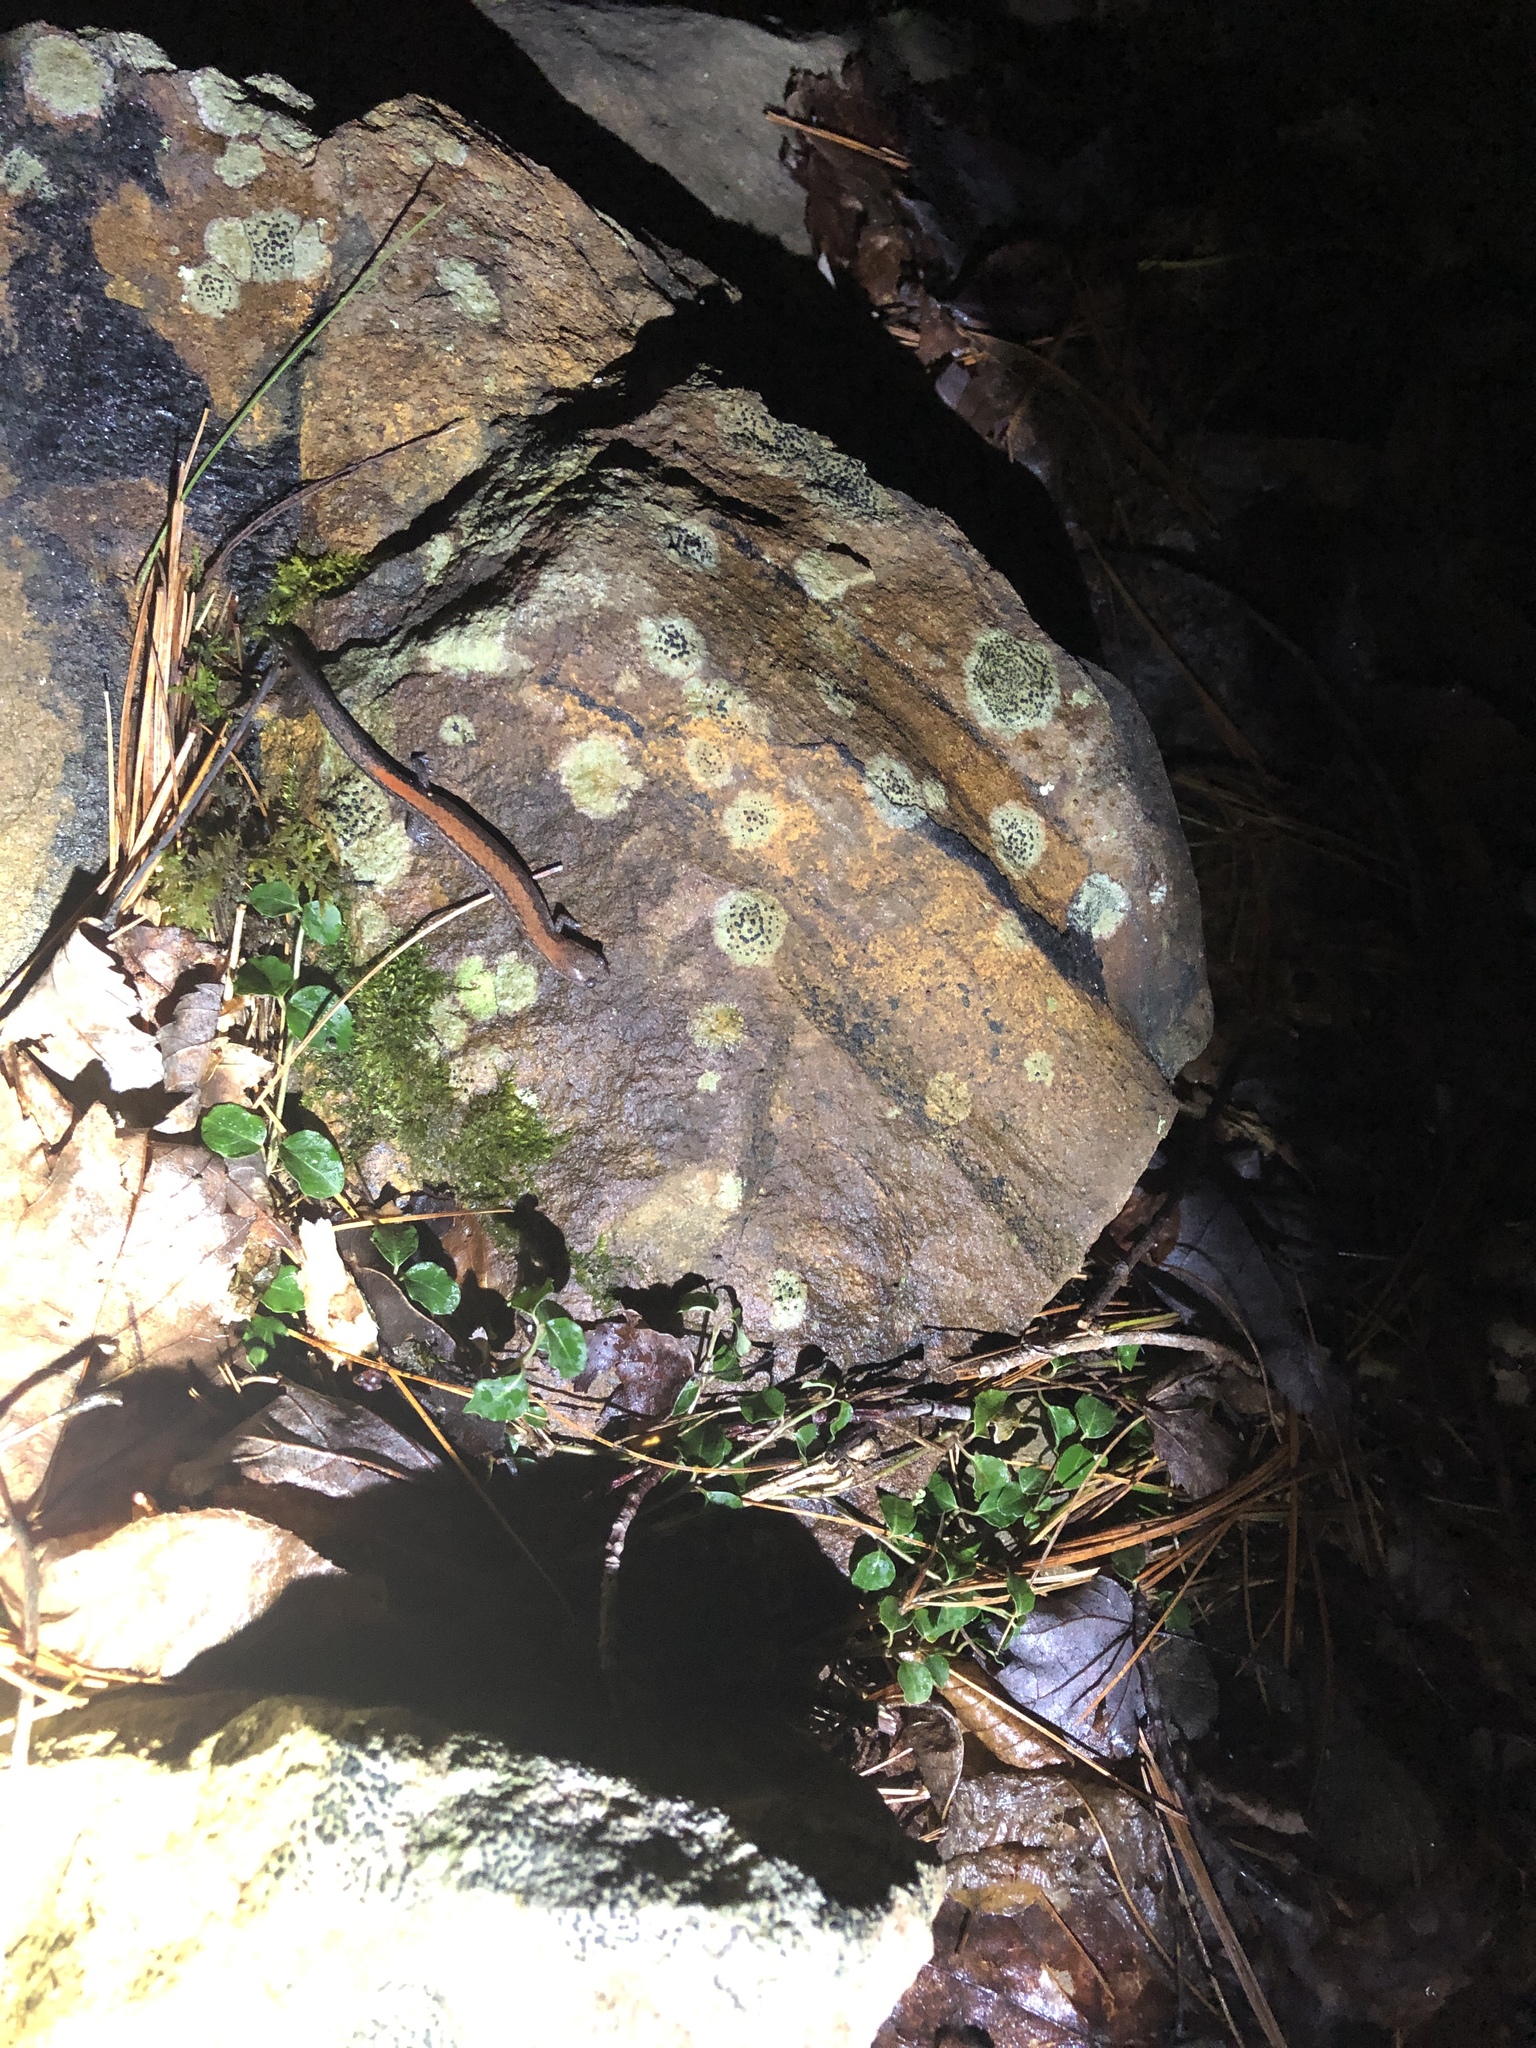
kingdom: Animalia
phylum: Chordata
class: Amphibia
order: Caudata
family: Plethodontidae
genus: Plethodon
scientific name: Plethodon cinereus
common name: Redback salamander
